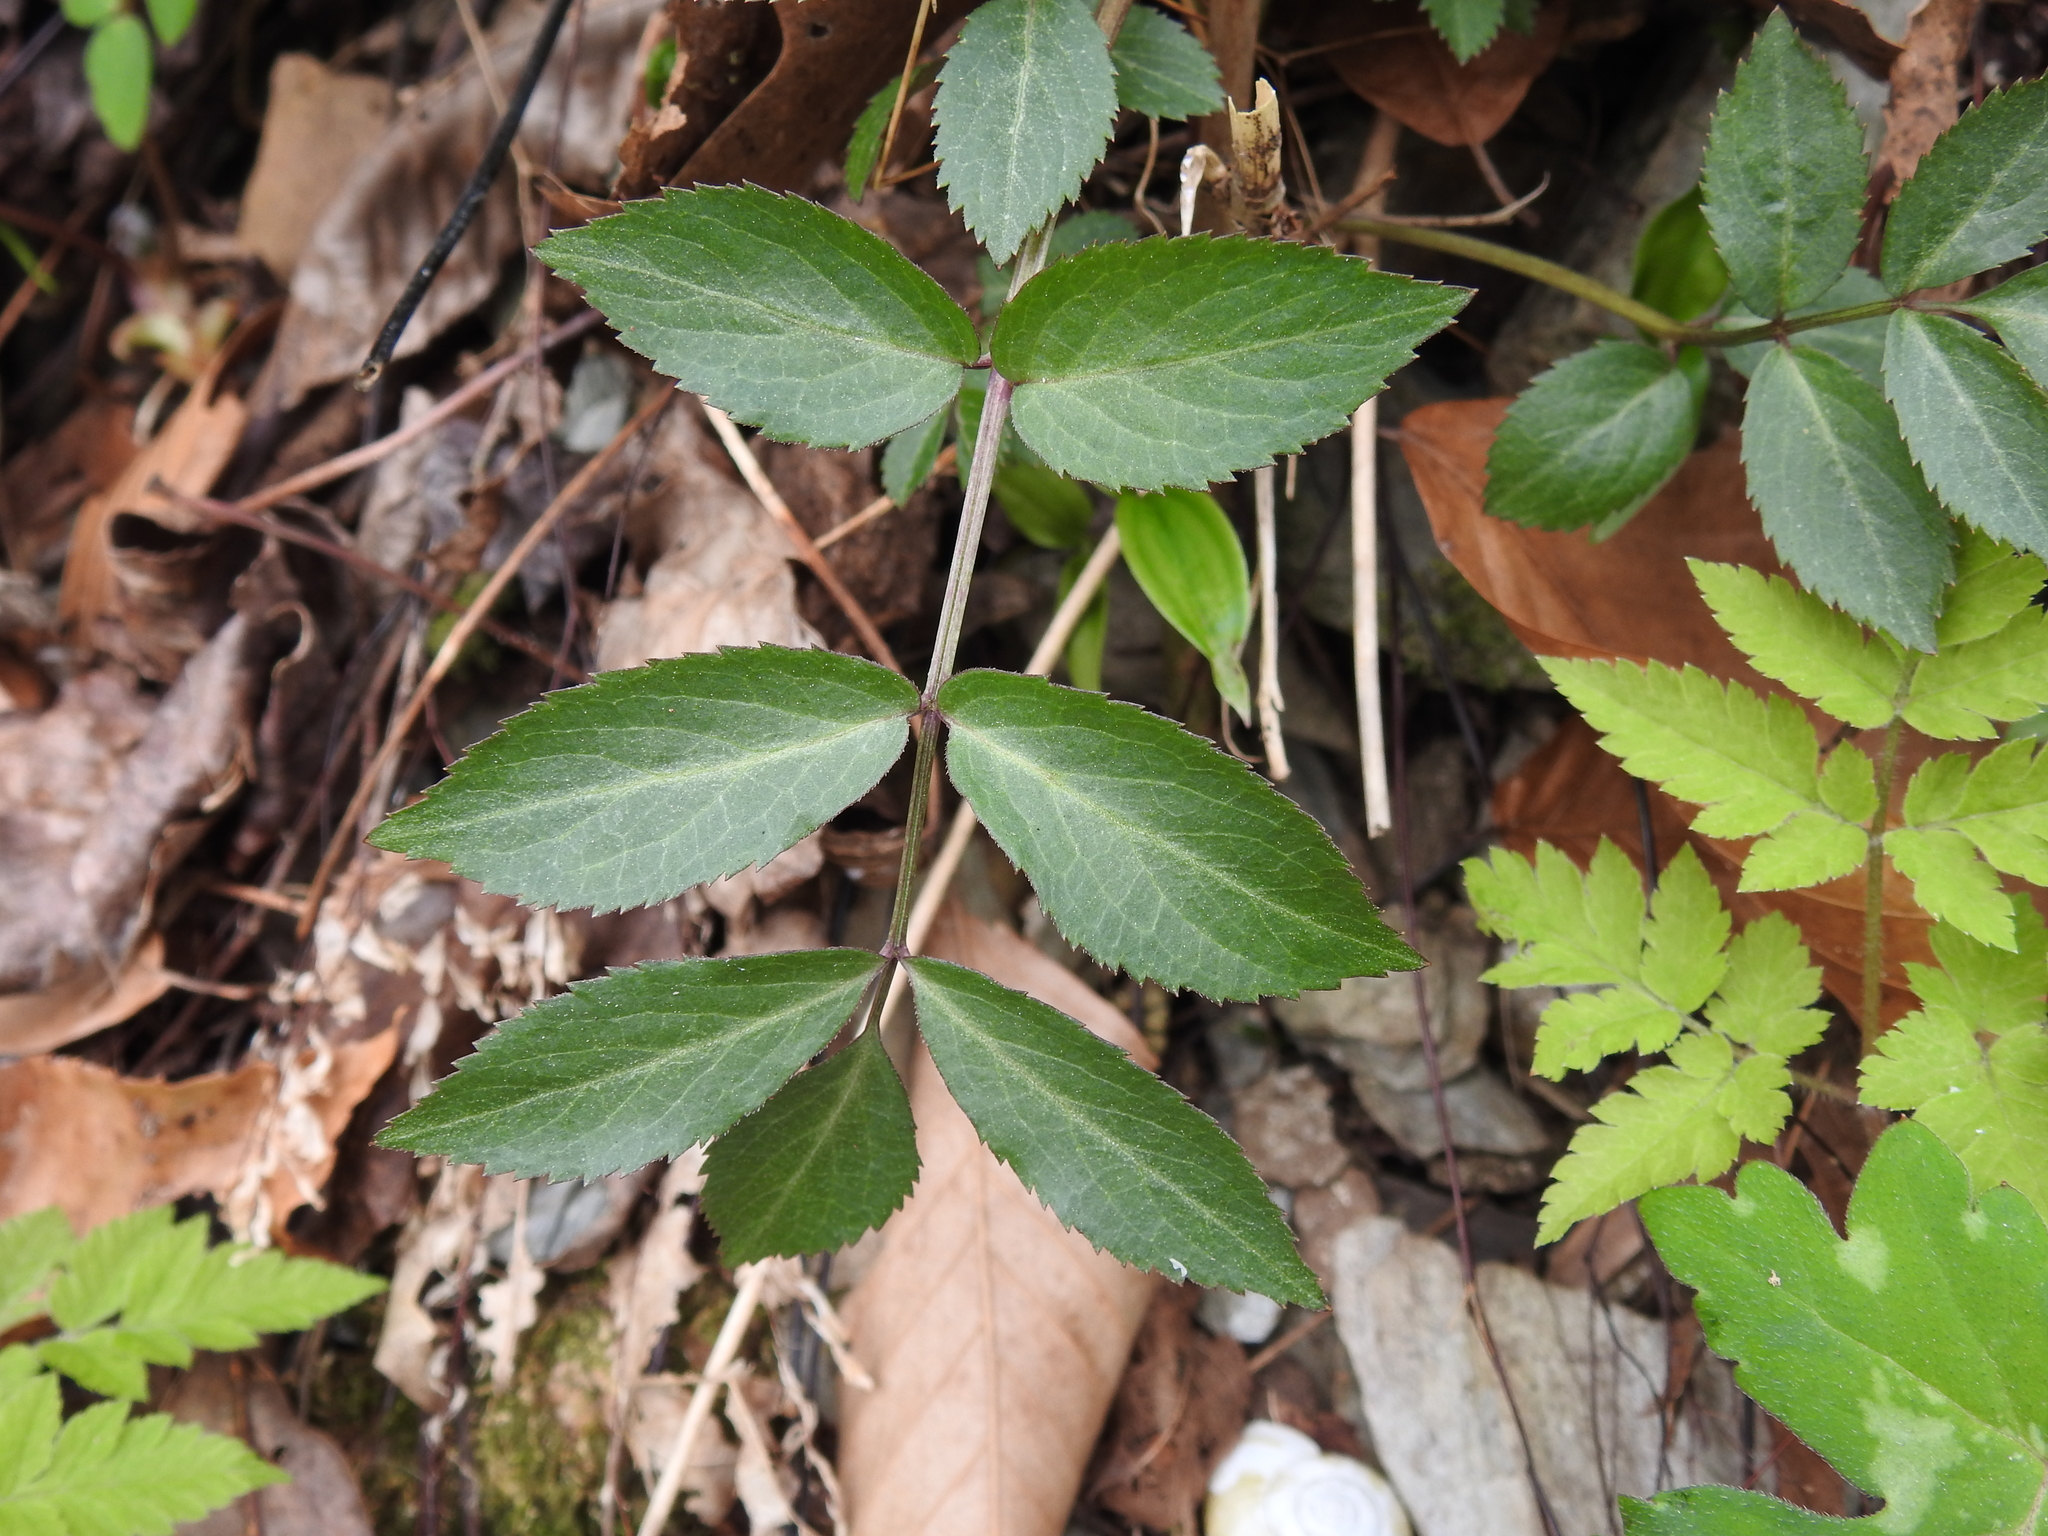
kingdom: Plantae
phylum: Tracheophyta
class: Magnoliopsida
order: Dipsacales
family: Viburnaceae
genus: Sambucus
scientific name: Sambucus canadensis
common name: American elder
